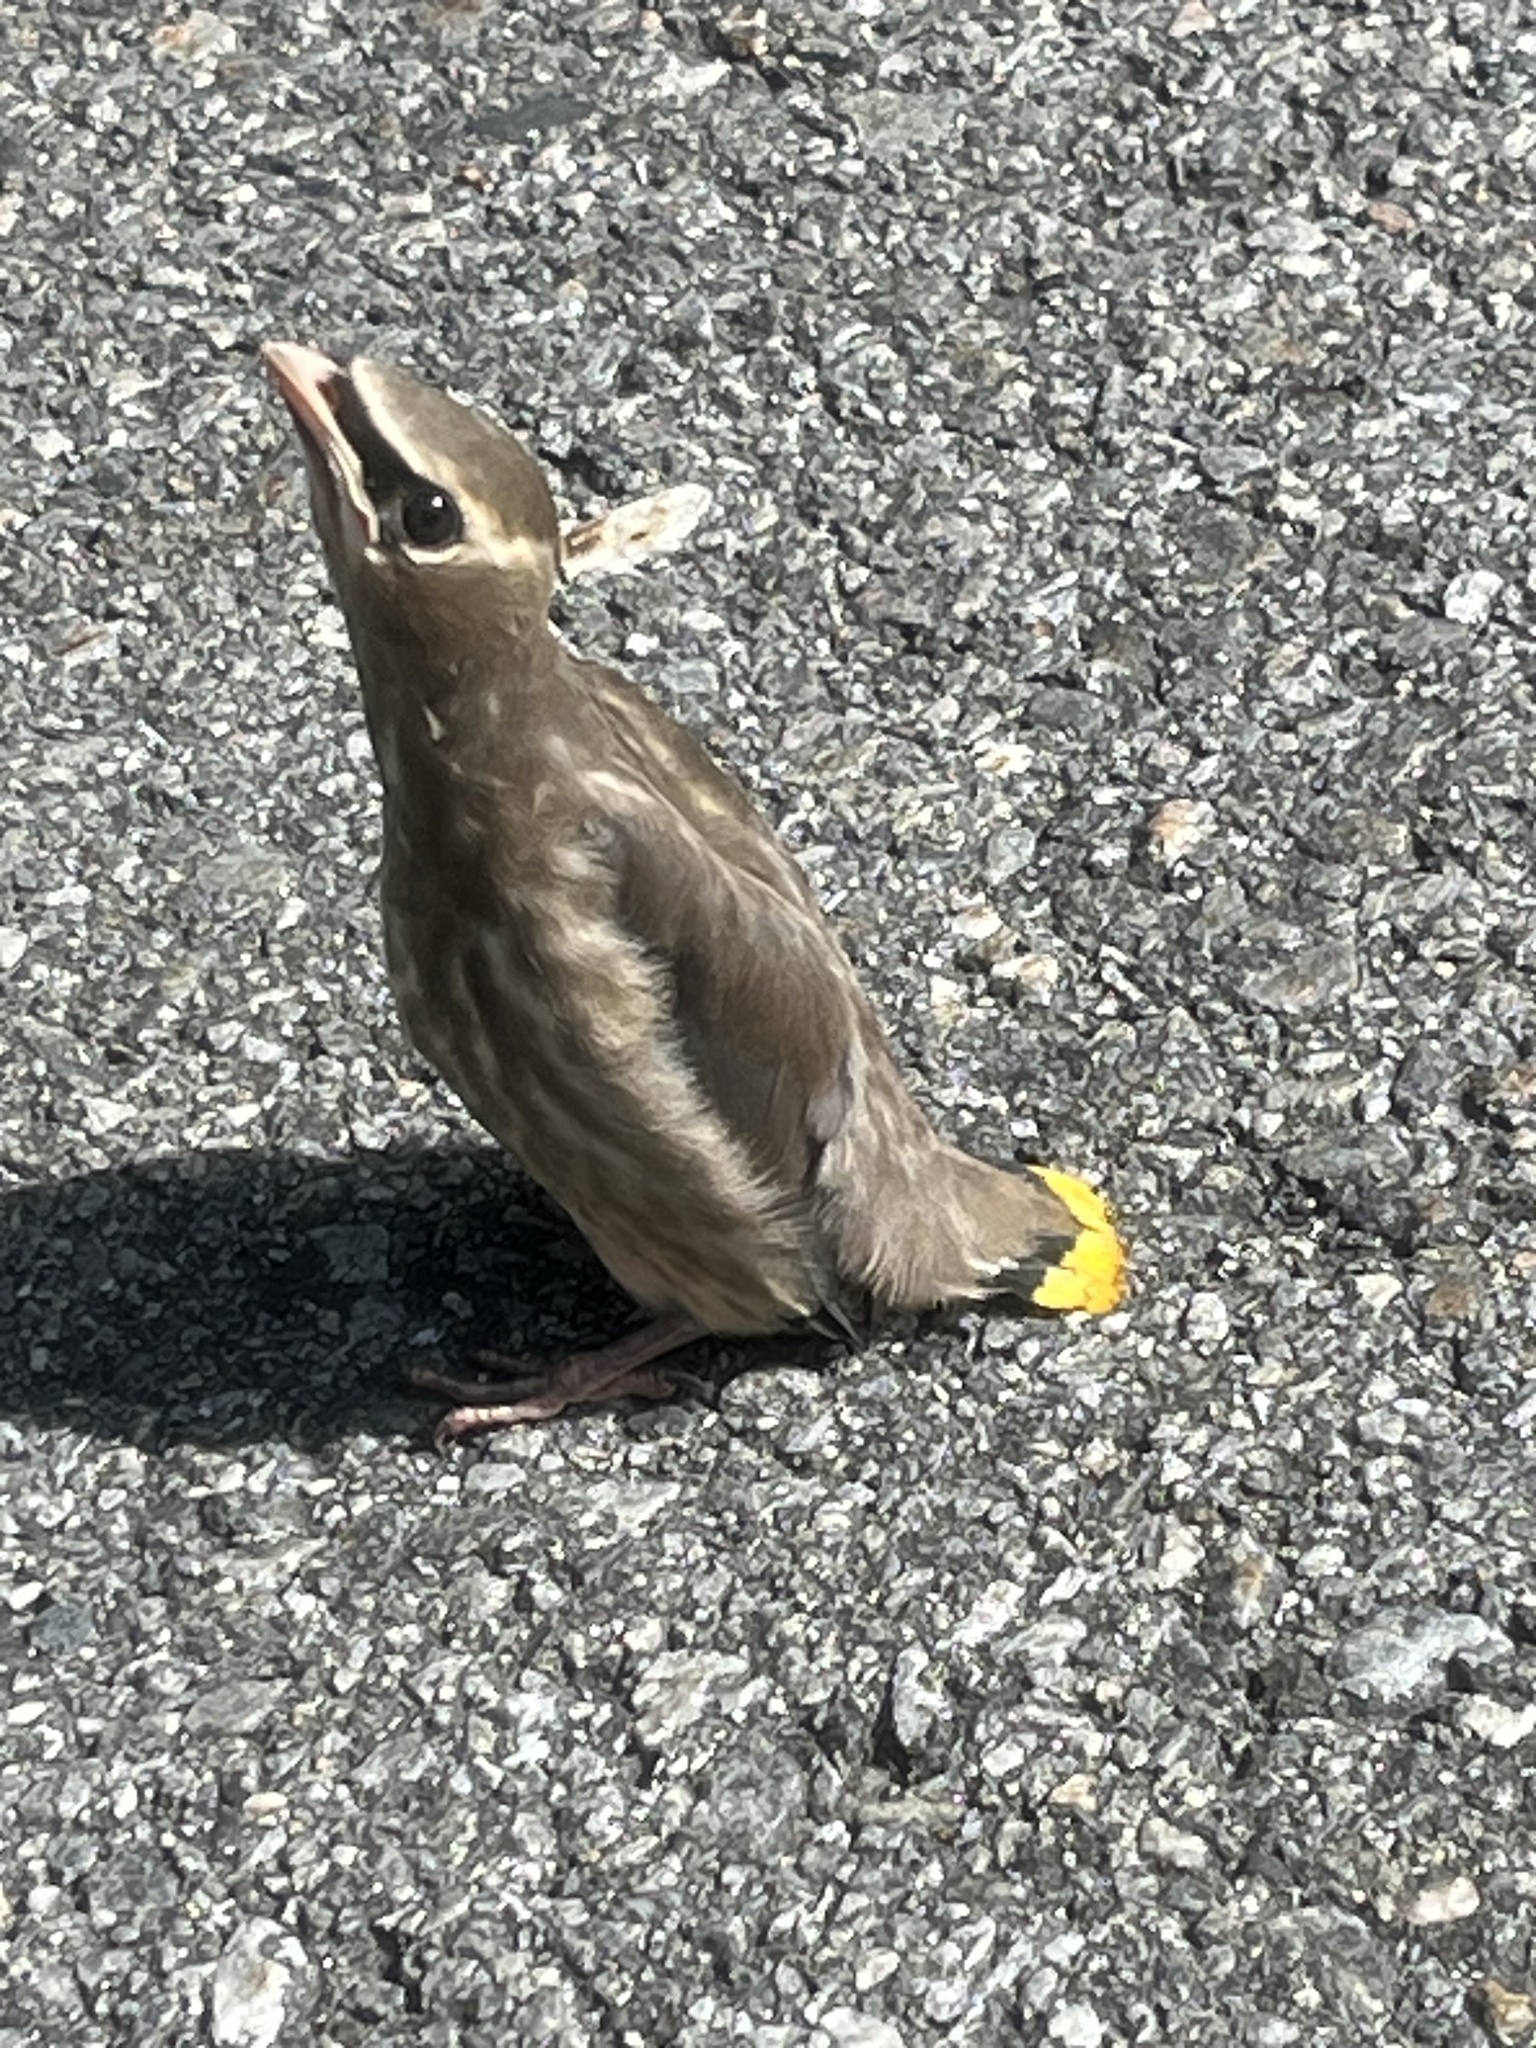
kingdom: Animalia
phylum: Chordata
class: Aves
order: Passeriformes
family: Bombycillidae
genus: Bombycilla
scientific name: Bombycilla cedrorum
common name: Cedar waxwing
